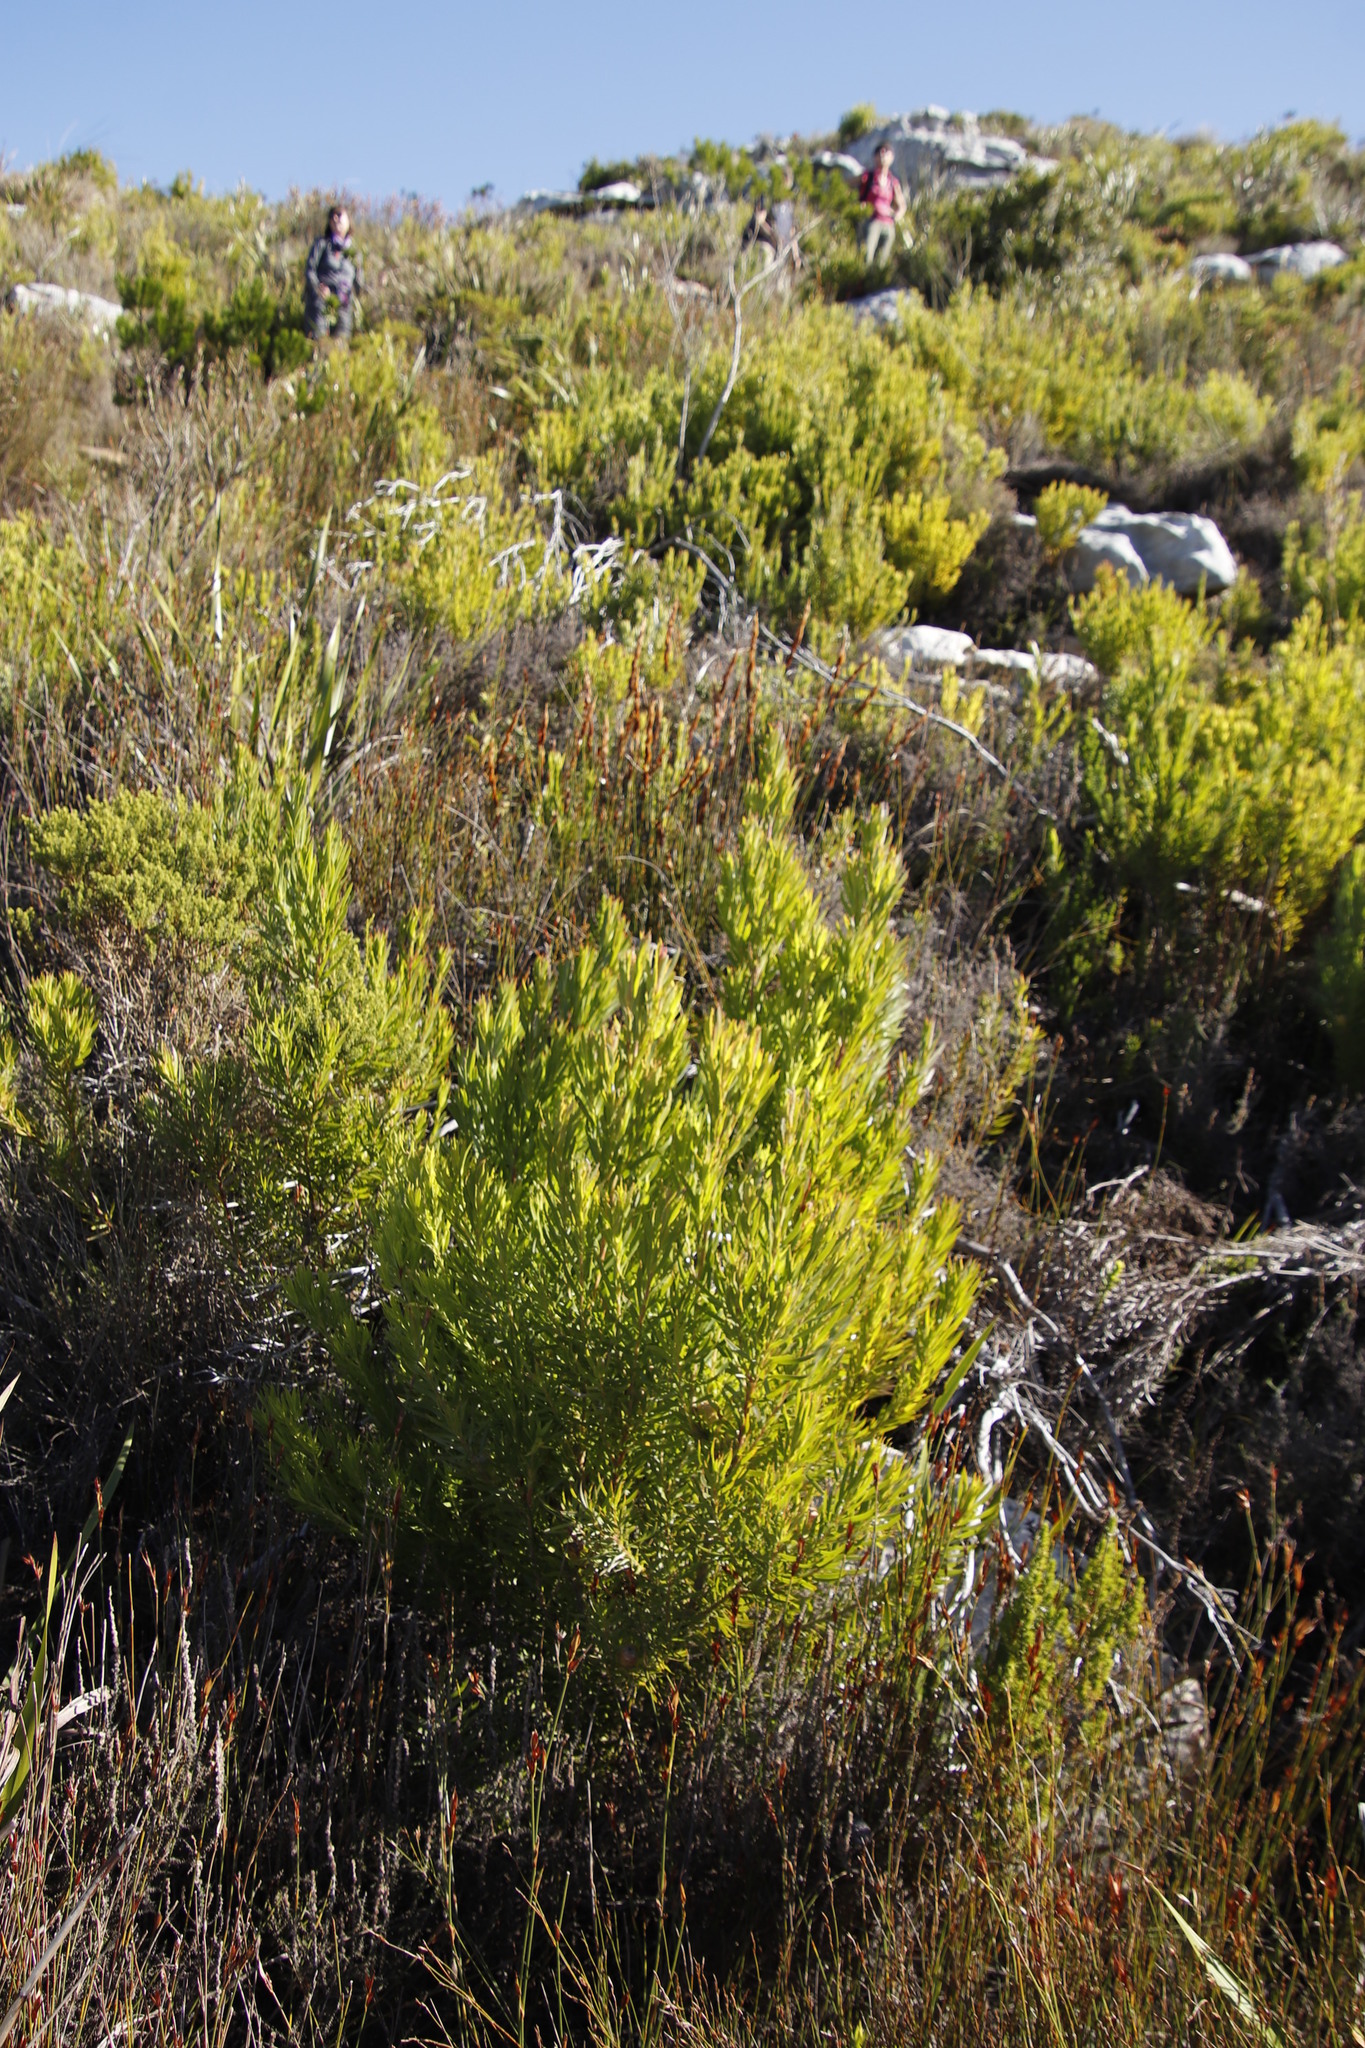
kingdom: Plantae
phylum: Tracheophyta
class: Magnoliopsida
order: Proteales
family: Proteaceae
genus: Leucadendron
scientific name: Leucadendron xanthoconus
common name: Sickle-leaf conebush
